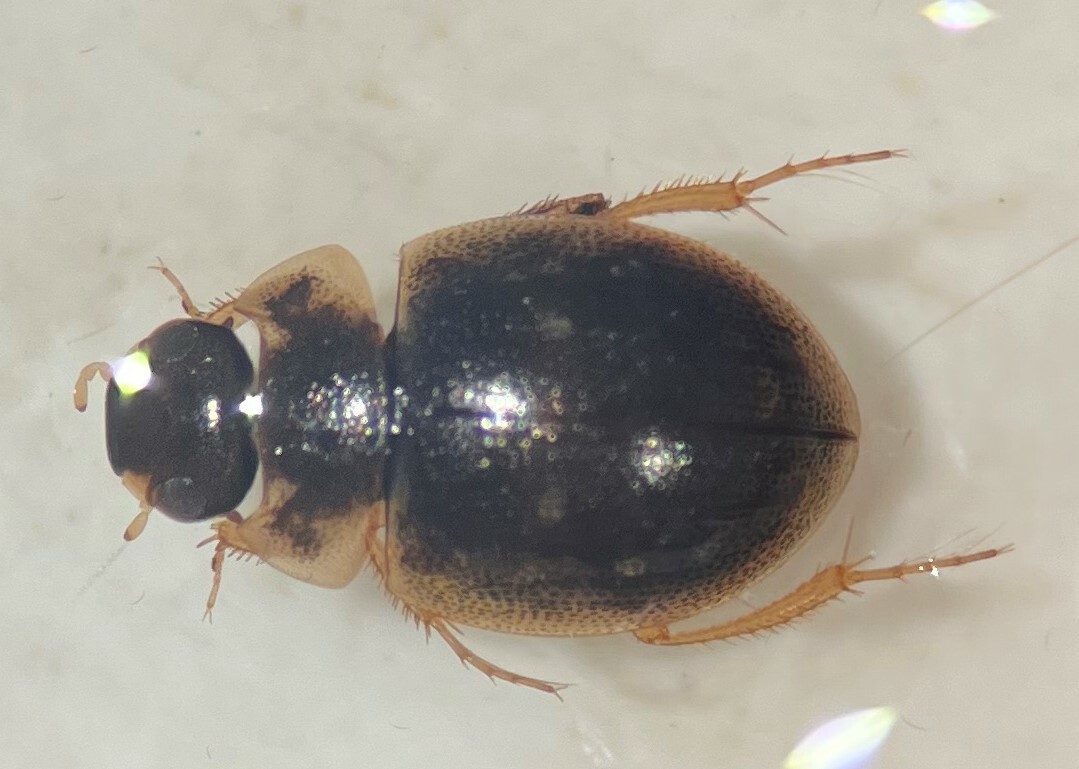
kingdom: Animalia
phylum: Arthropoda
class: Insecta
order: Coleoptera
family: Hydrophilidae
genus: Laccobius
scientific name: Laccobius spangleri
